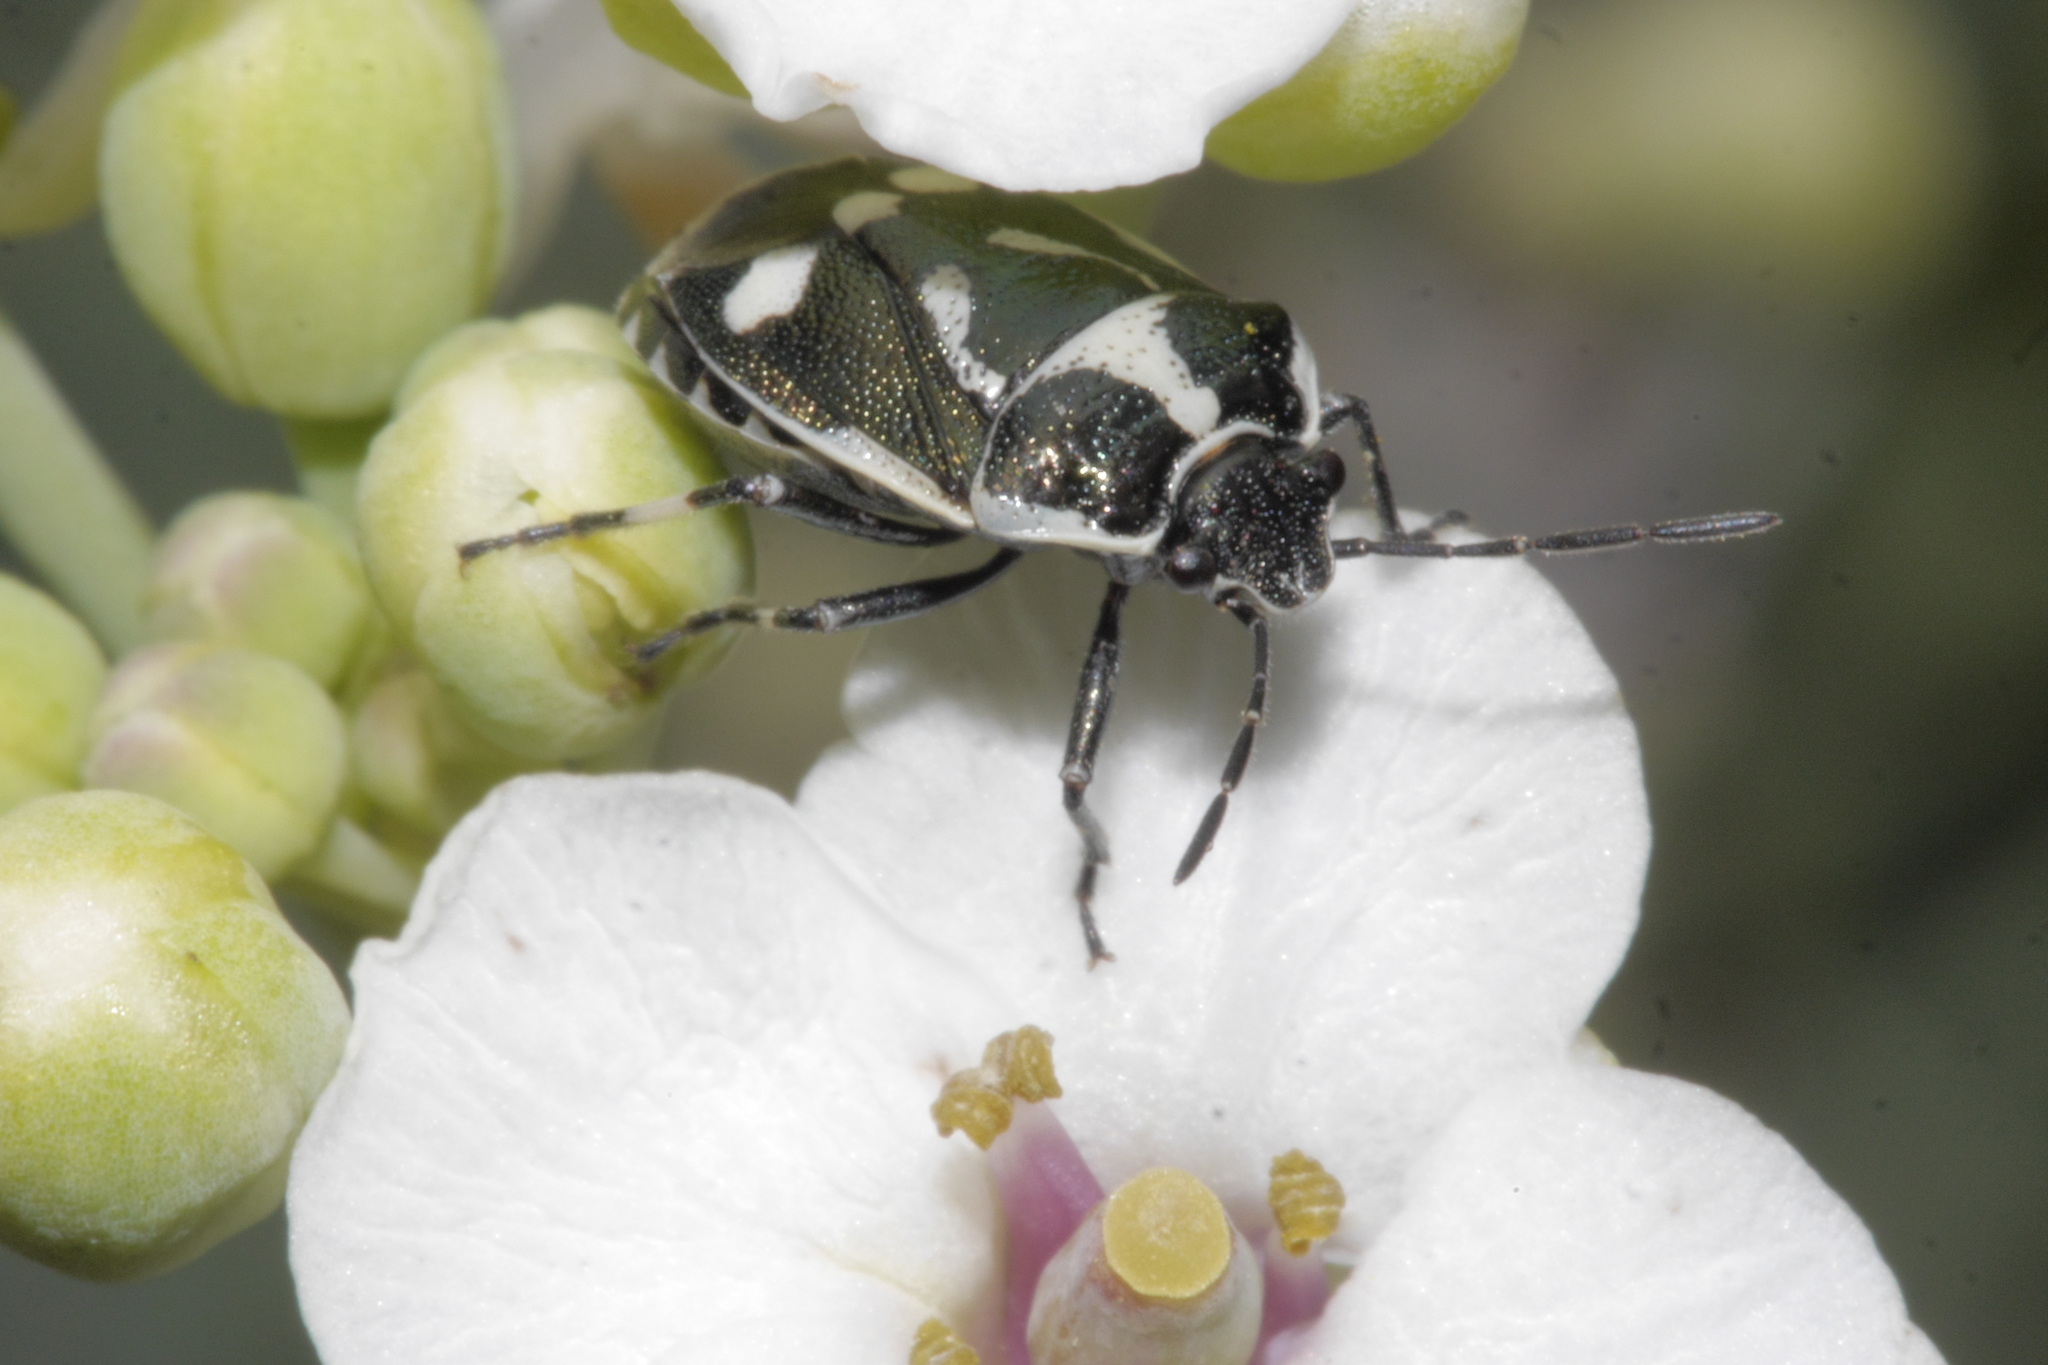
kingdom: Animalia
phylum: Arthropoda
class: Insecta
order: Hemiptera
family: Pentatomidae
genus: Eurydema
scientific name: Eurydema oleracea
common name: Cabbage bug
